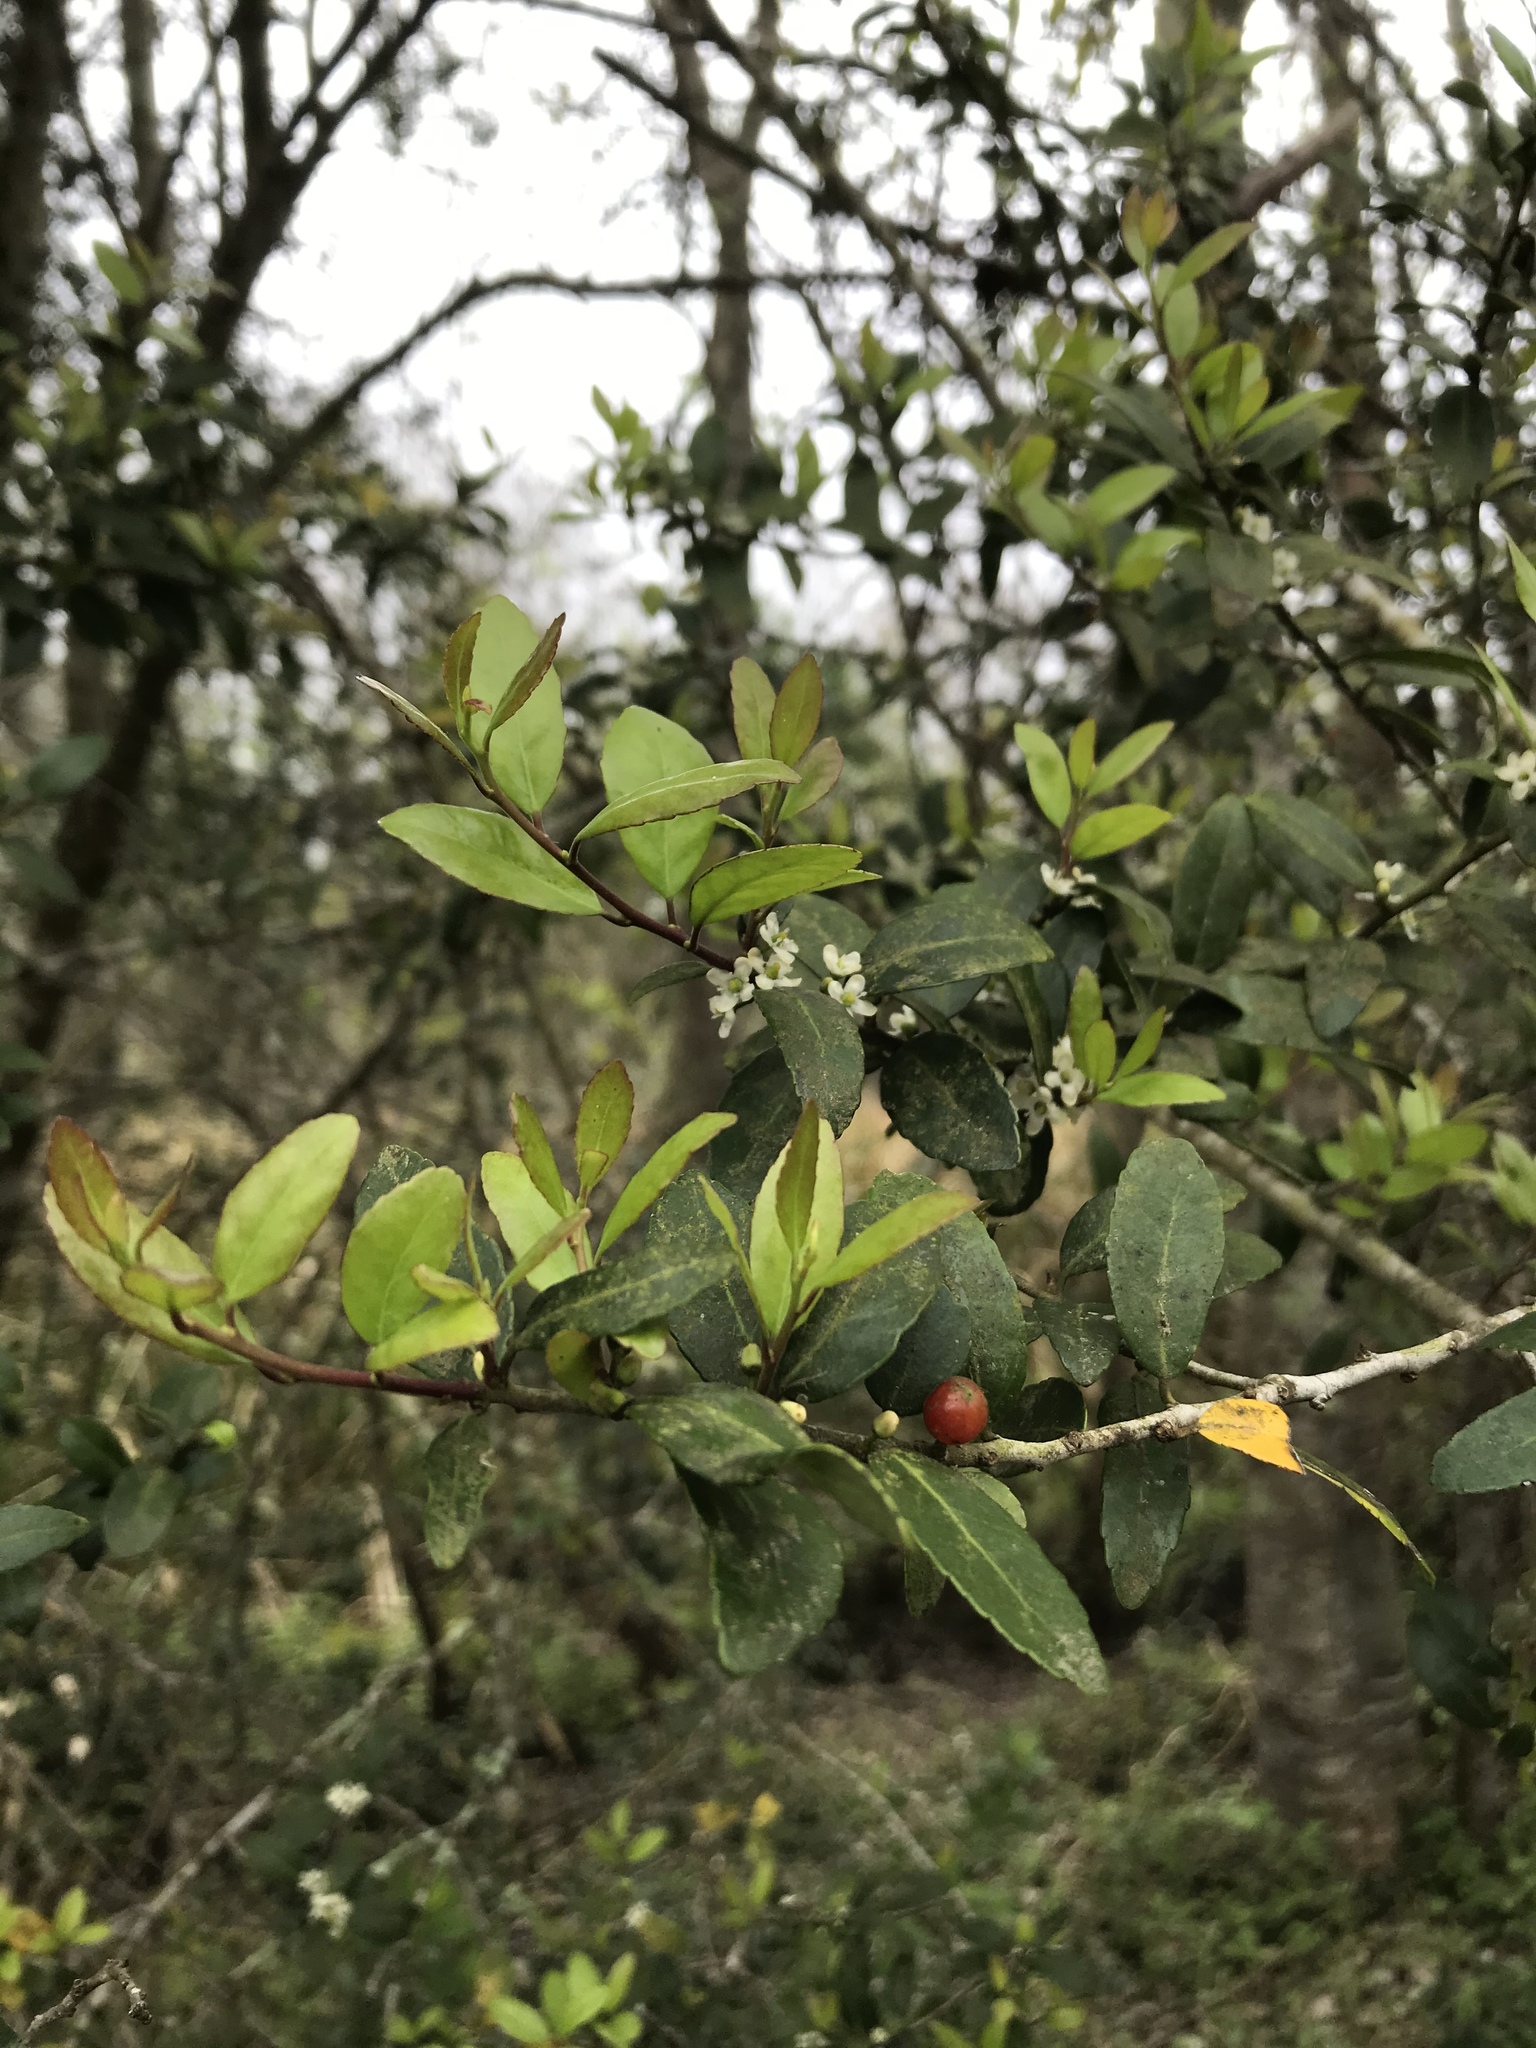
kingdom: Plantae
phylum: Tracheophyta
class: Magnoliopsida
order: Aquifoliales
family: Aquifoliaceae
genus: Ilex
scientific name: Ilex vomitoria
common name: Yaupon holly
